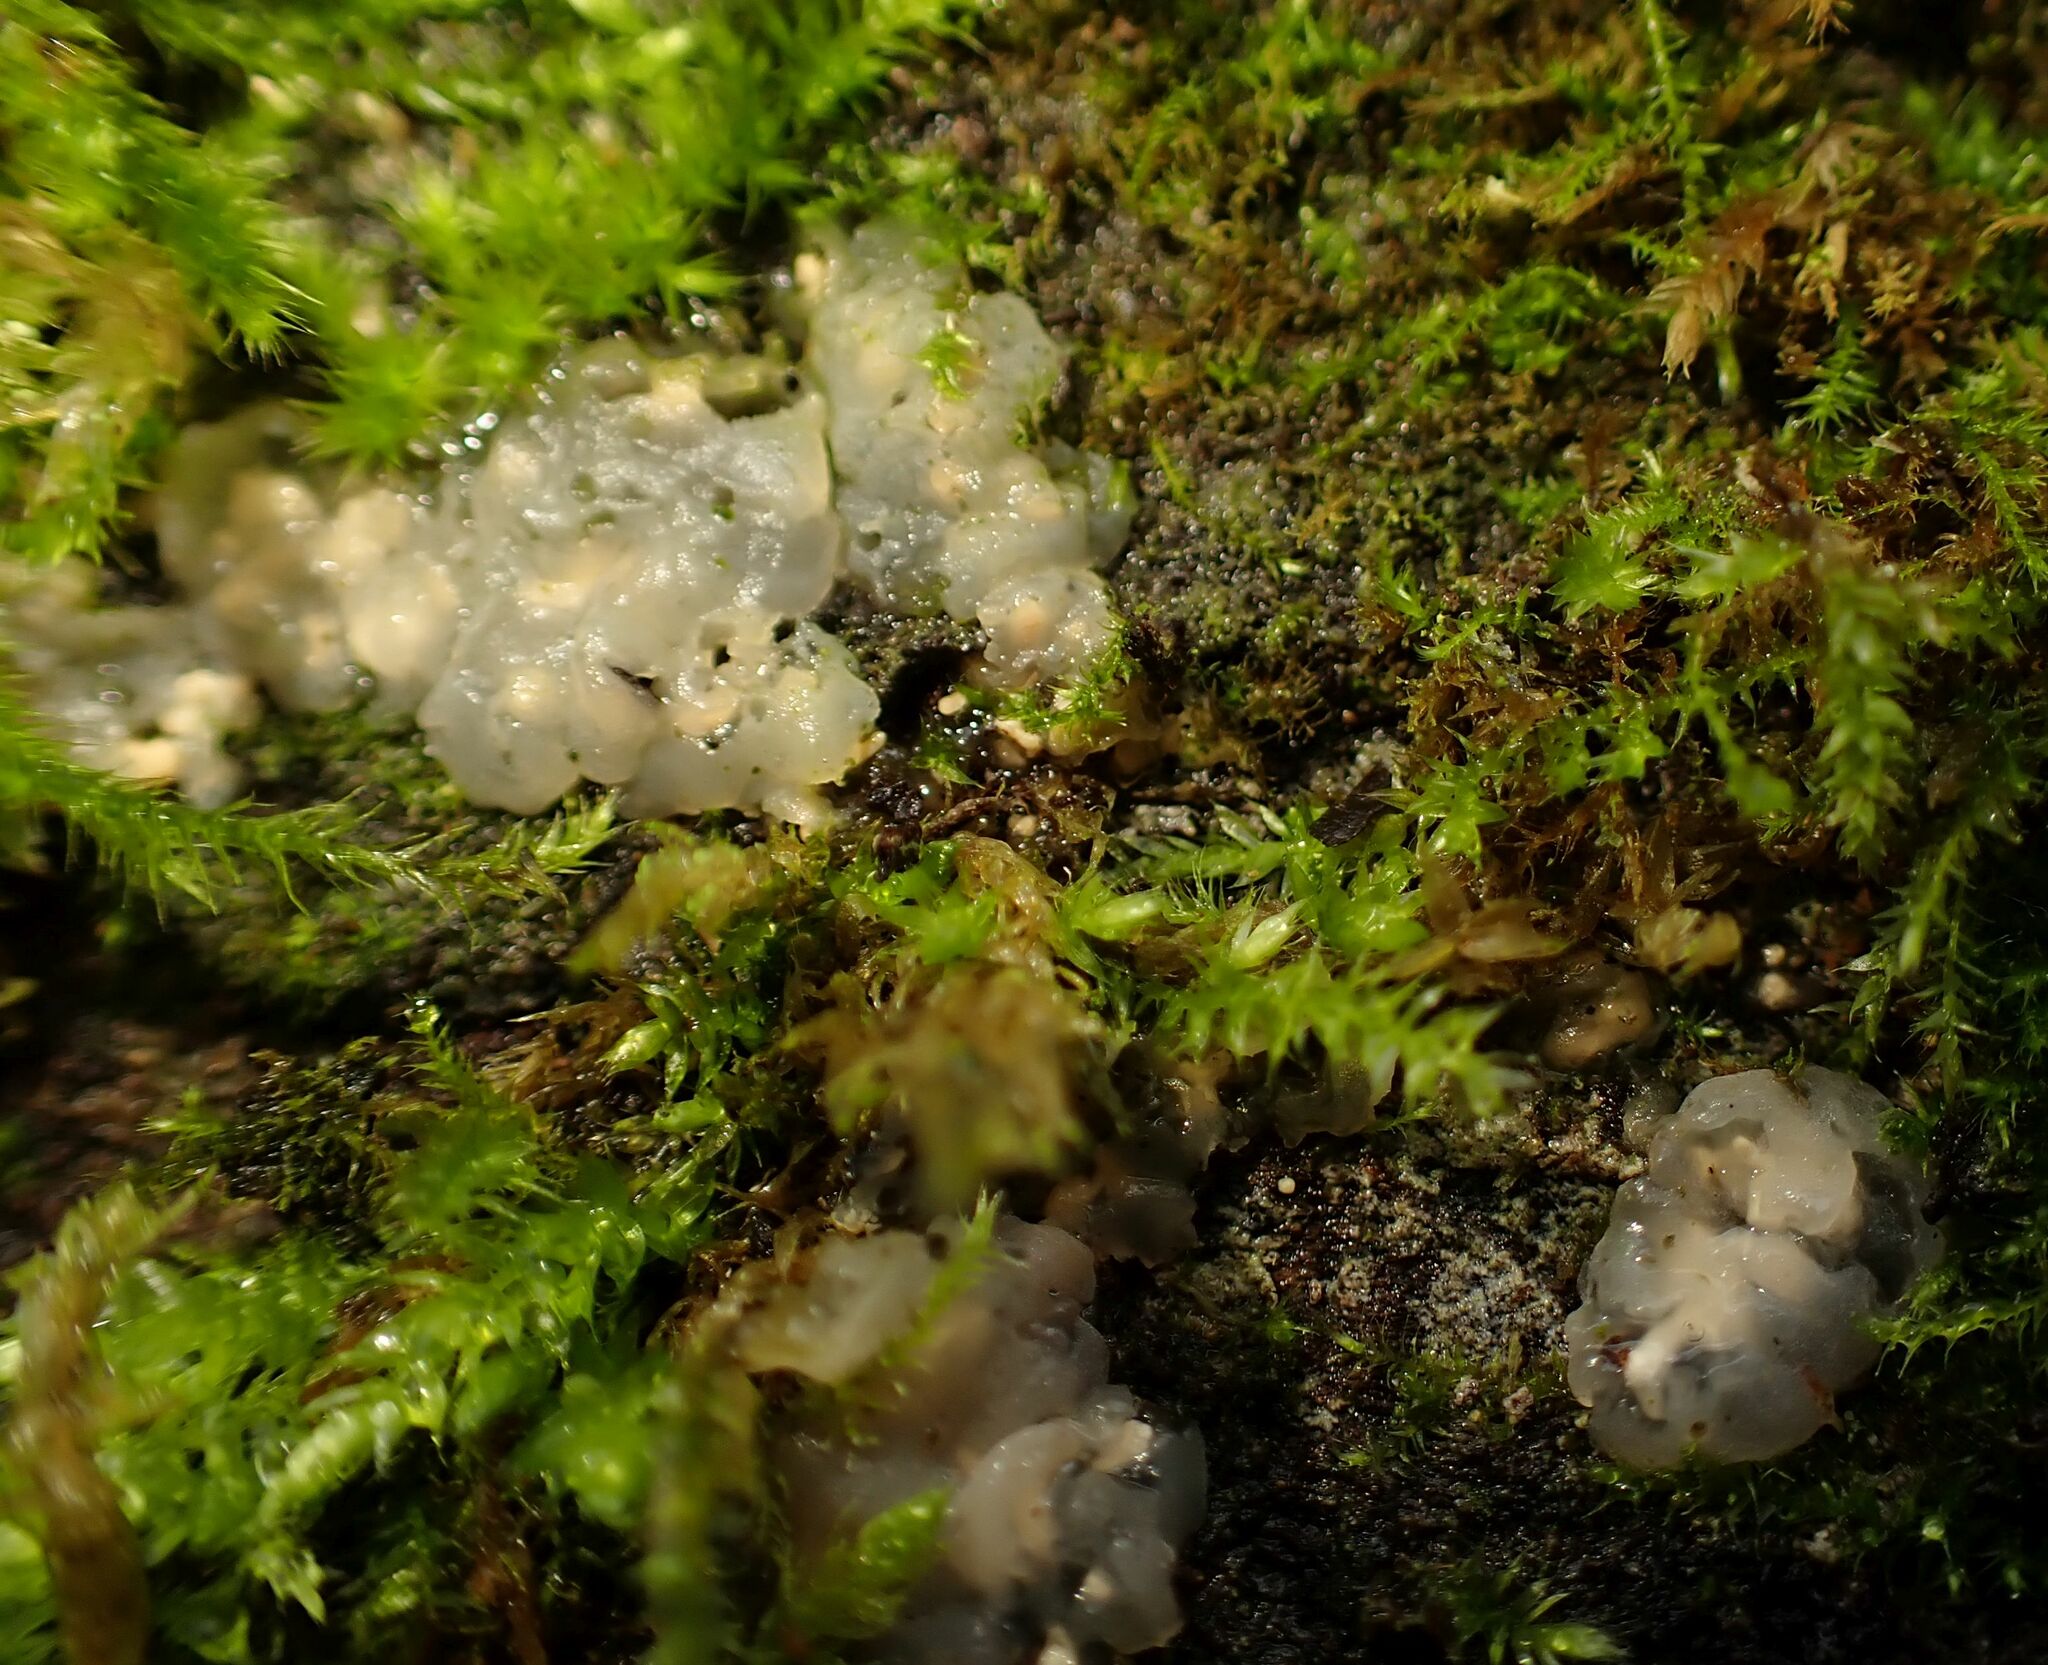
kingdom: Fungi
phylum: Basidiomycota
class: Agaricomycetes
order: Auriculariales
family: Hyaloriaceae
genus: Myxarium
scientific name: Myxarium nucleatum
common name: Crystal brain fungus
